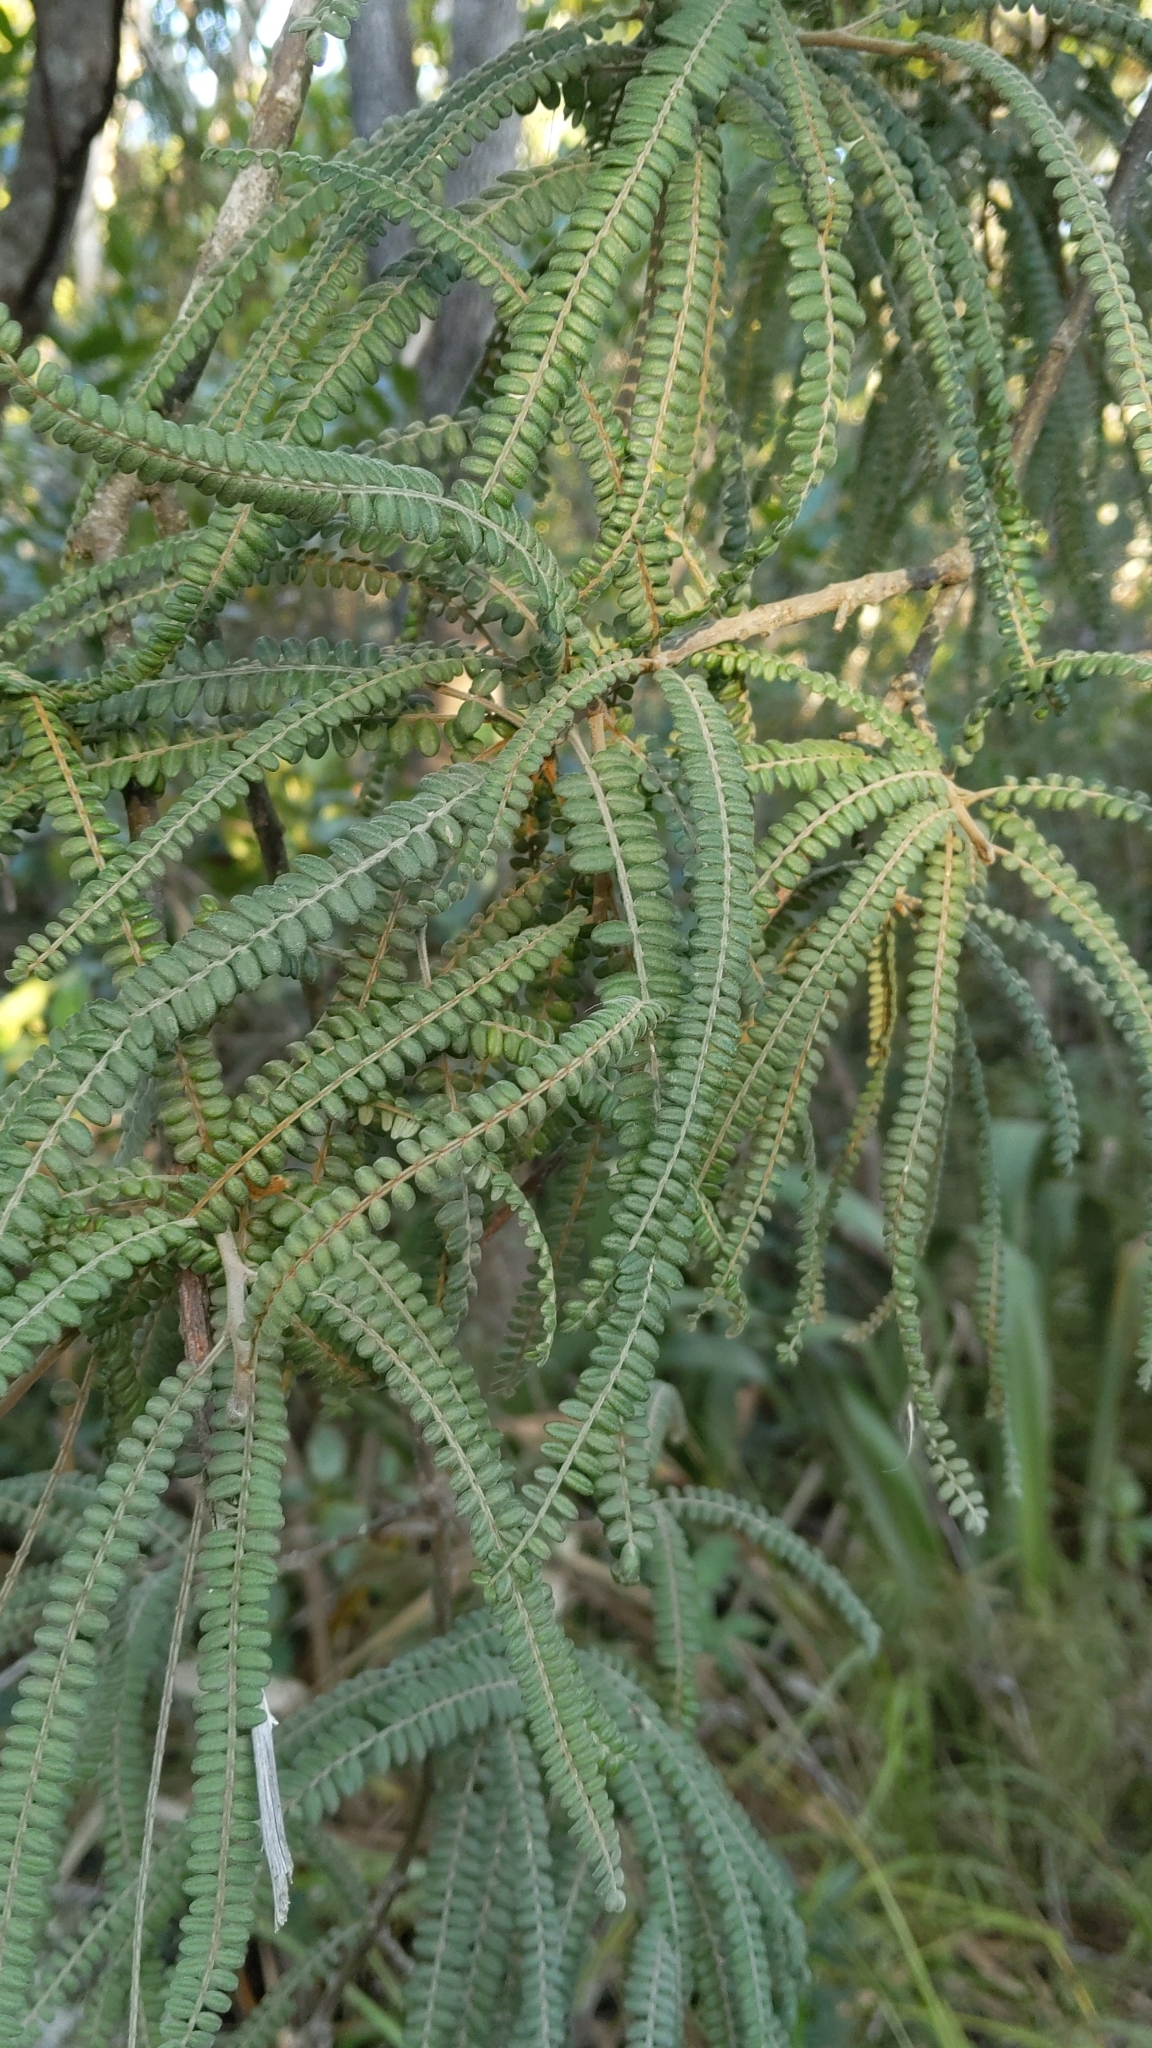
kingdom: Plantae
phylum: Tracheophyta
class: Magnoliopsida
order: Fabales
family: Fabaceae
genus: Sophora
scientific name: Sophora fulvida
